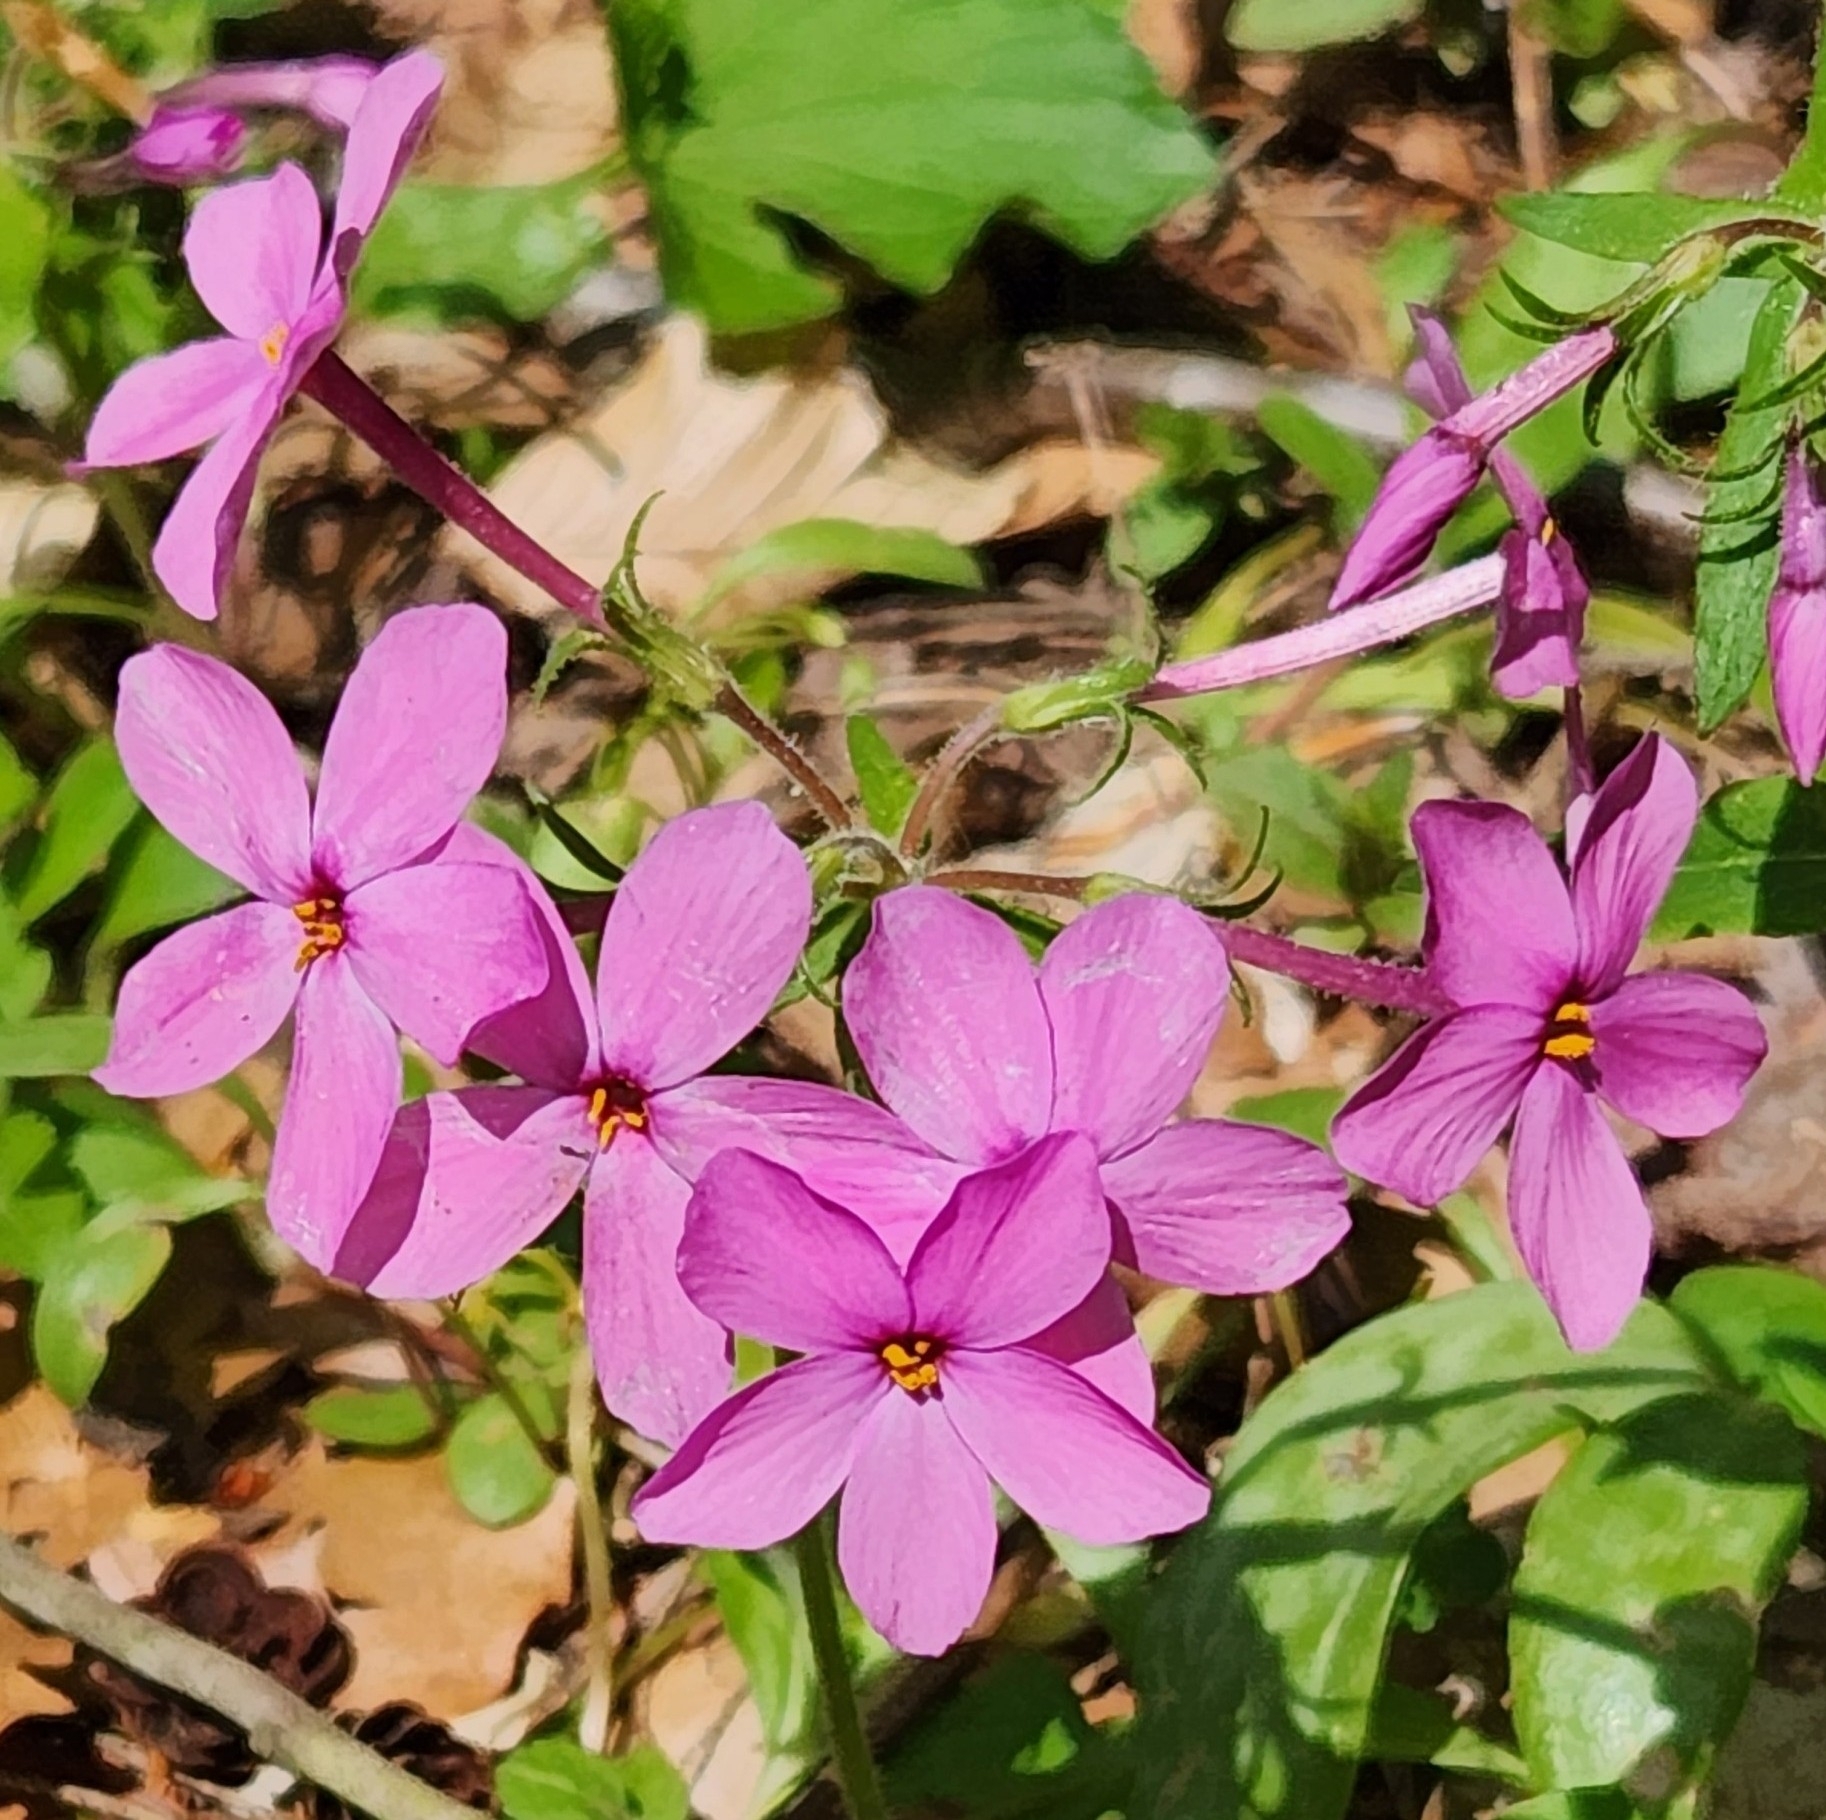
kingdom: Plantae
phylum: Tracheophyta
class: Magnoliopsida
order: Ericales
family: Polemoniaceae
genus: Phlox
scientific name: Phlox stolonifera
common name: Creeping phlox
